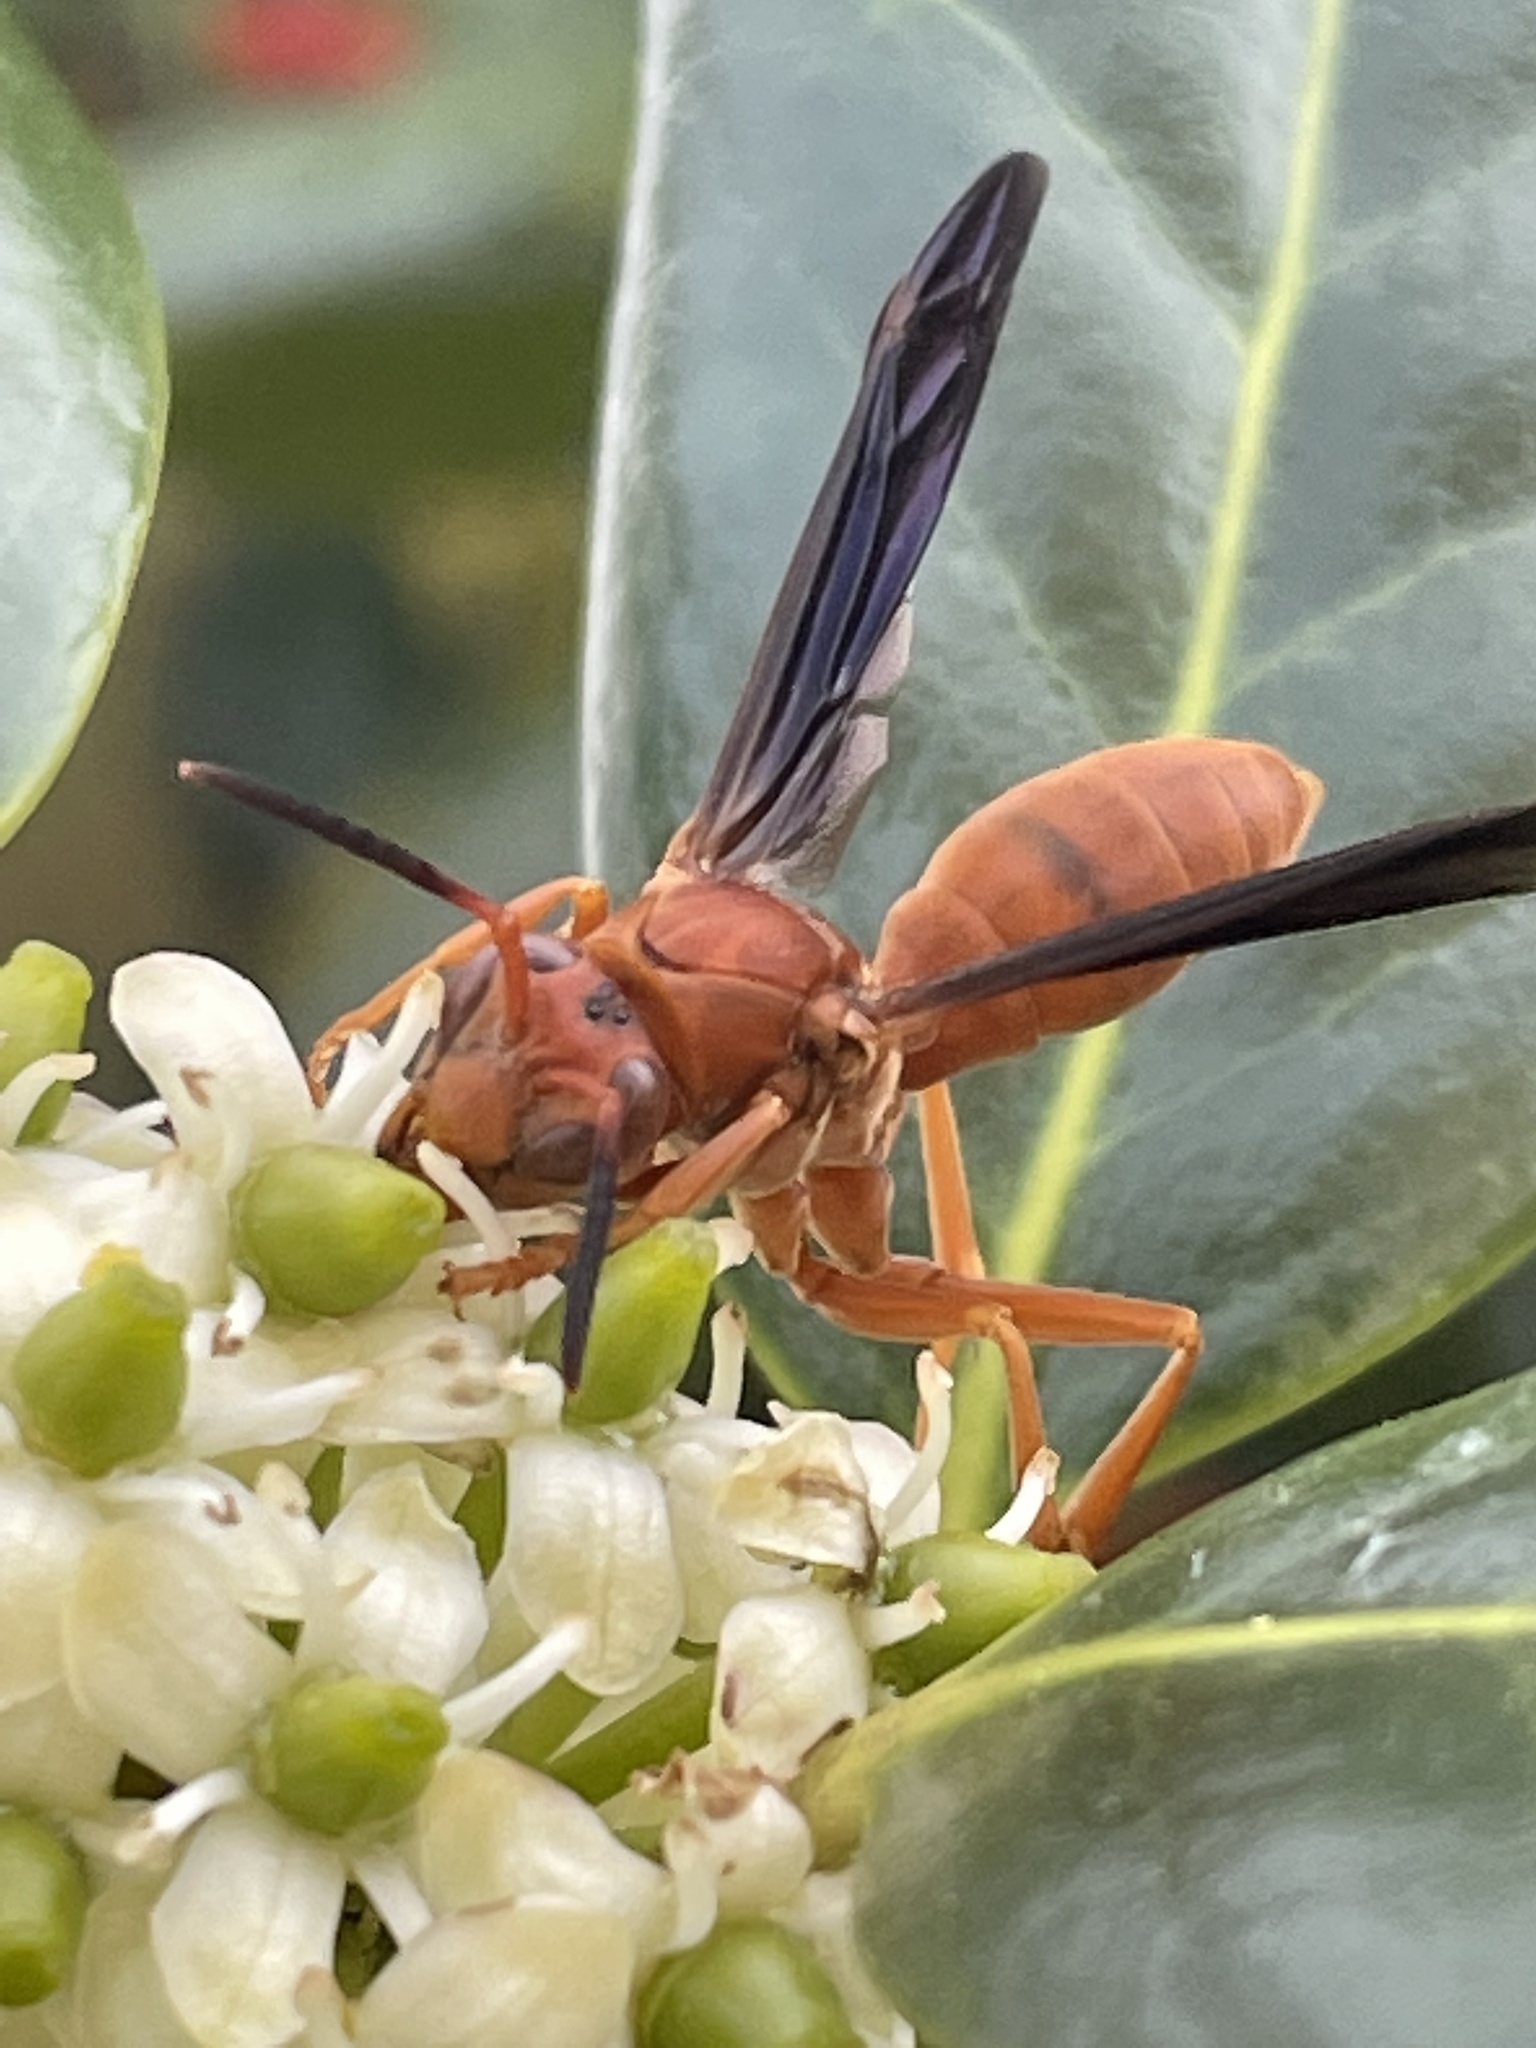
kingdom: Animalia
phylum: Arthropoda
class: Insecta
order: Hymenoptera
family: Vespidae
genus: Fuscopolistes
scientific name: Fuscopolistes
